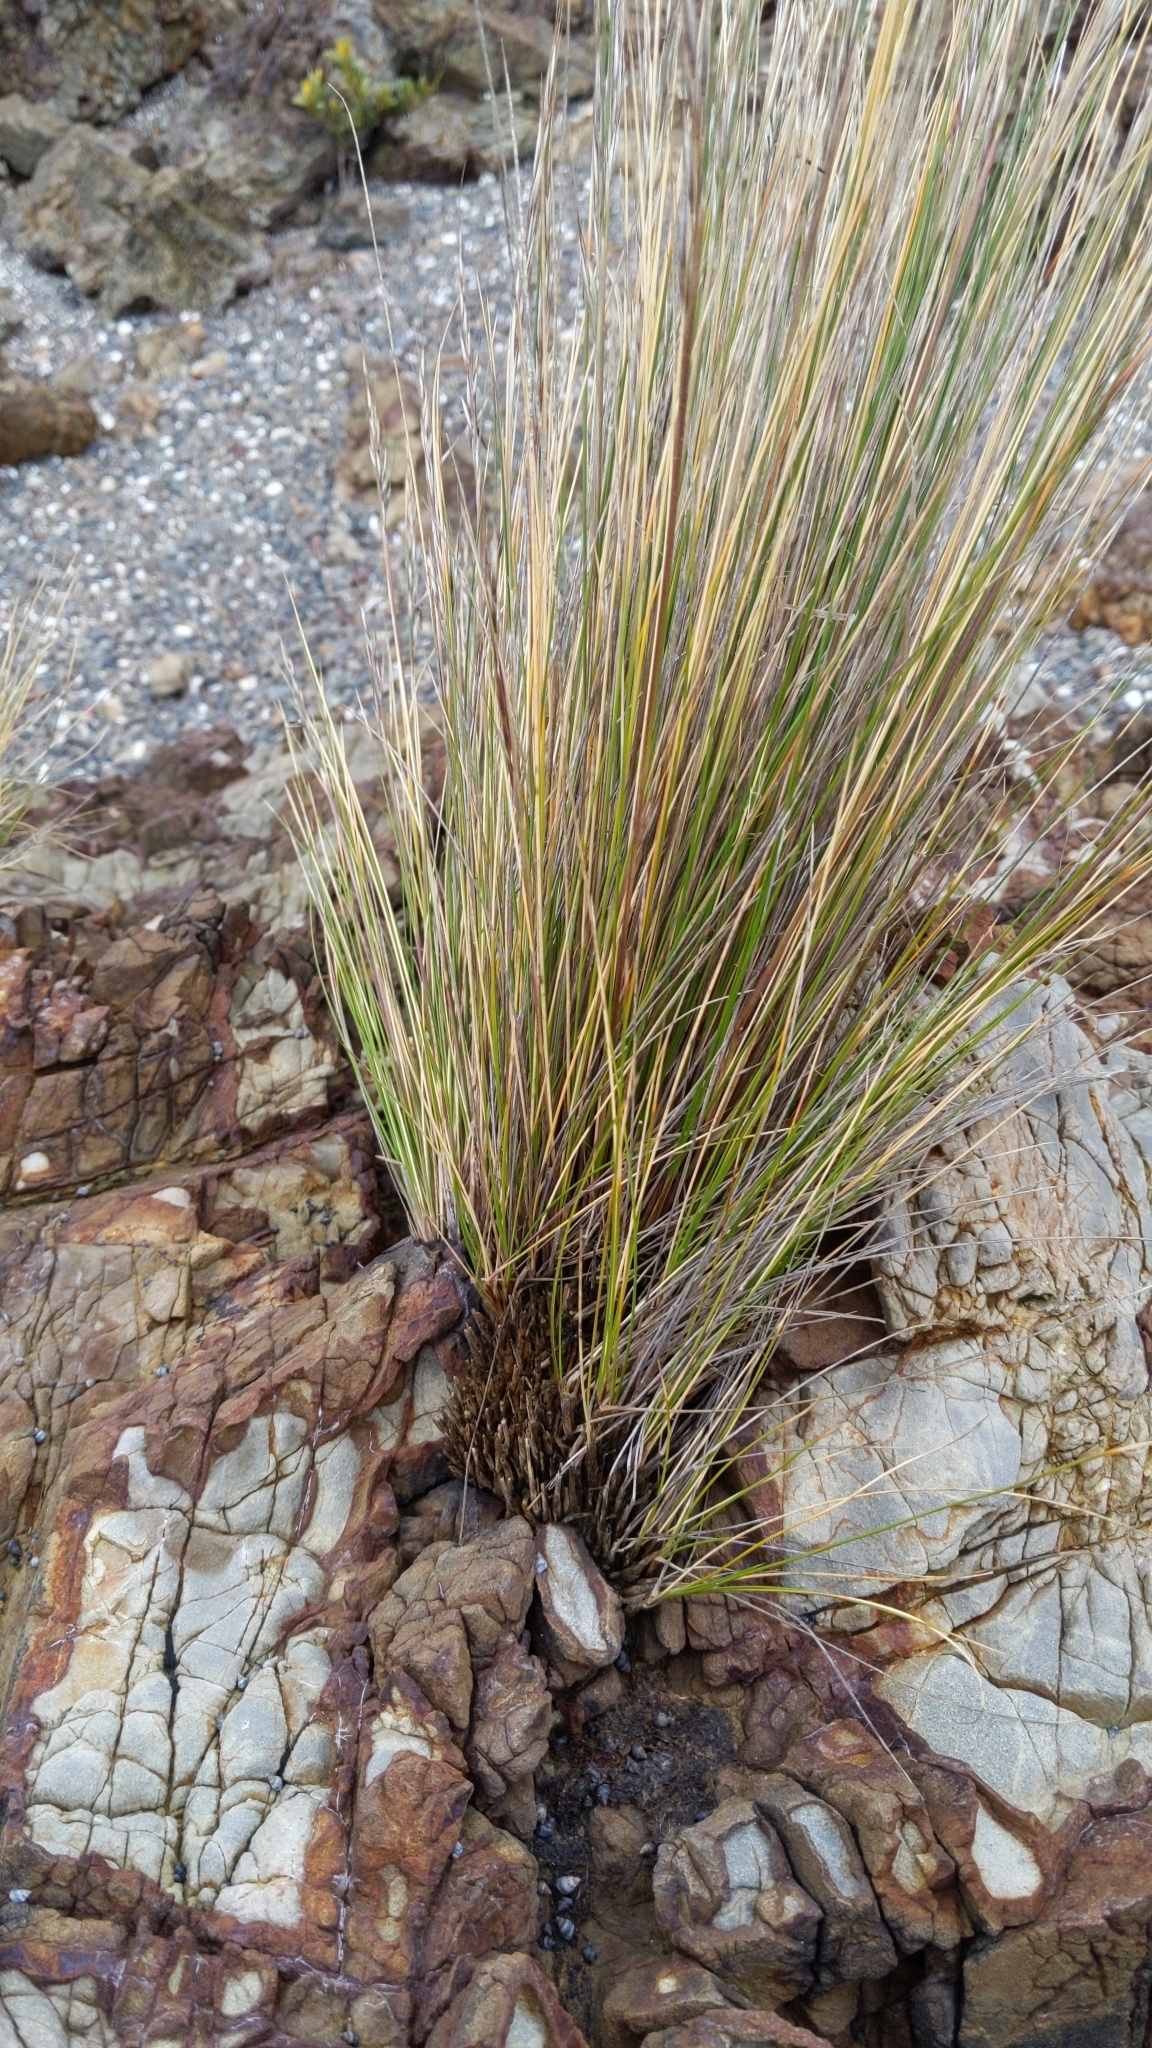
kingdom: Plantae
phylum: Tracheophyta
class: Liliopsida
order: Poales
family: Poaceae
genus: Austrostipa
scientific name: Austrostipa stipoides
